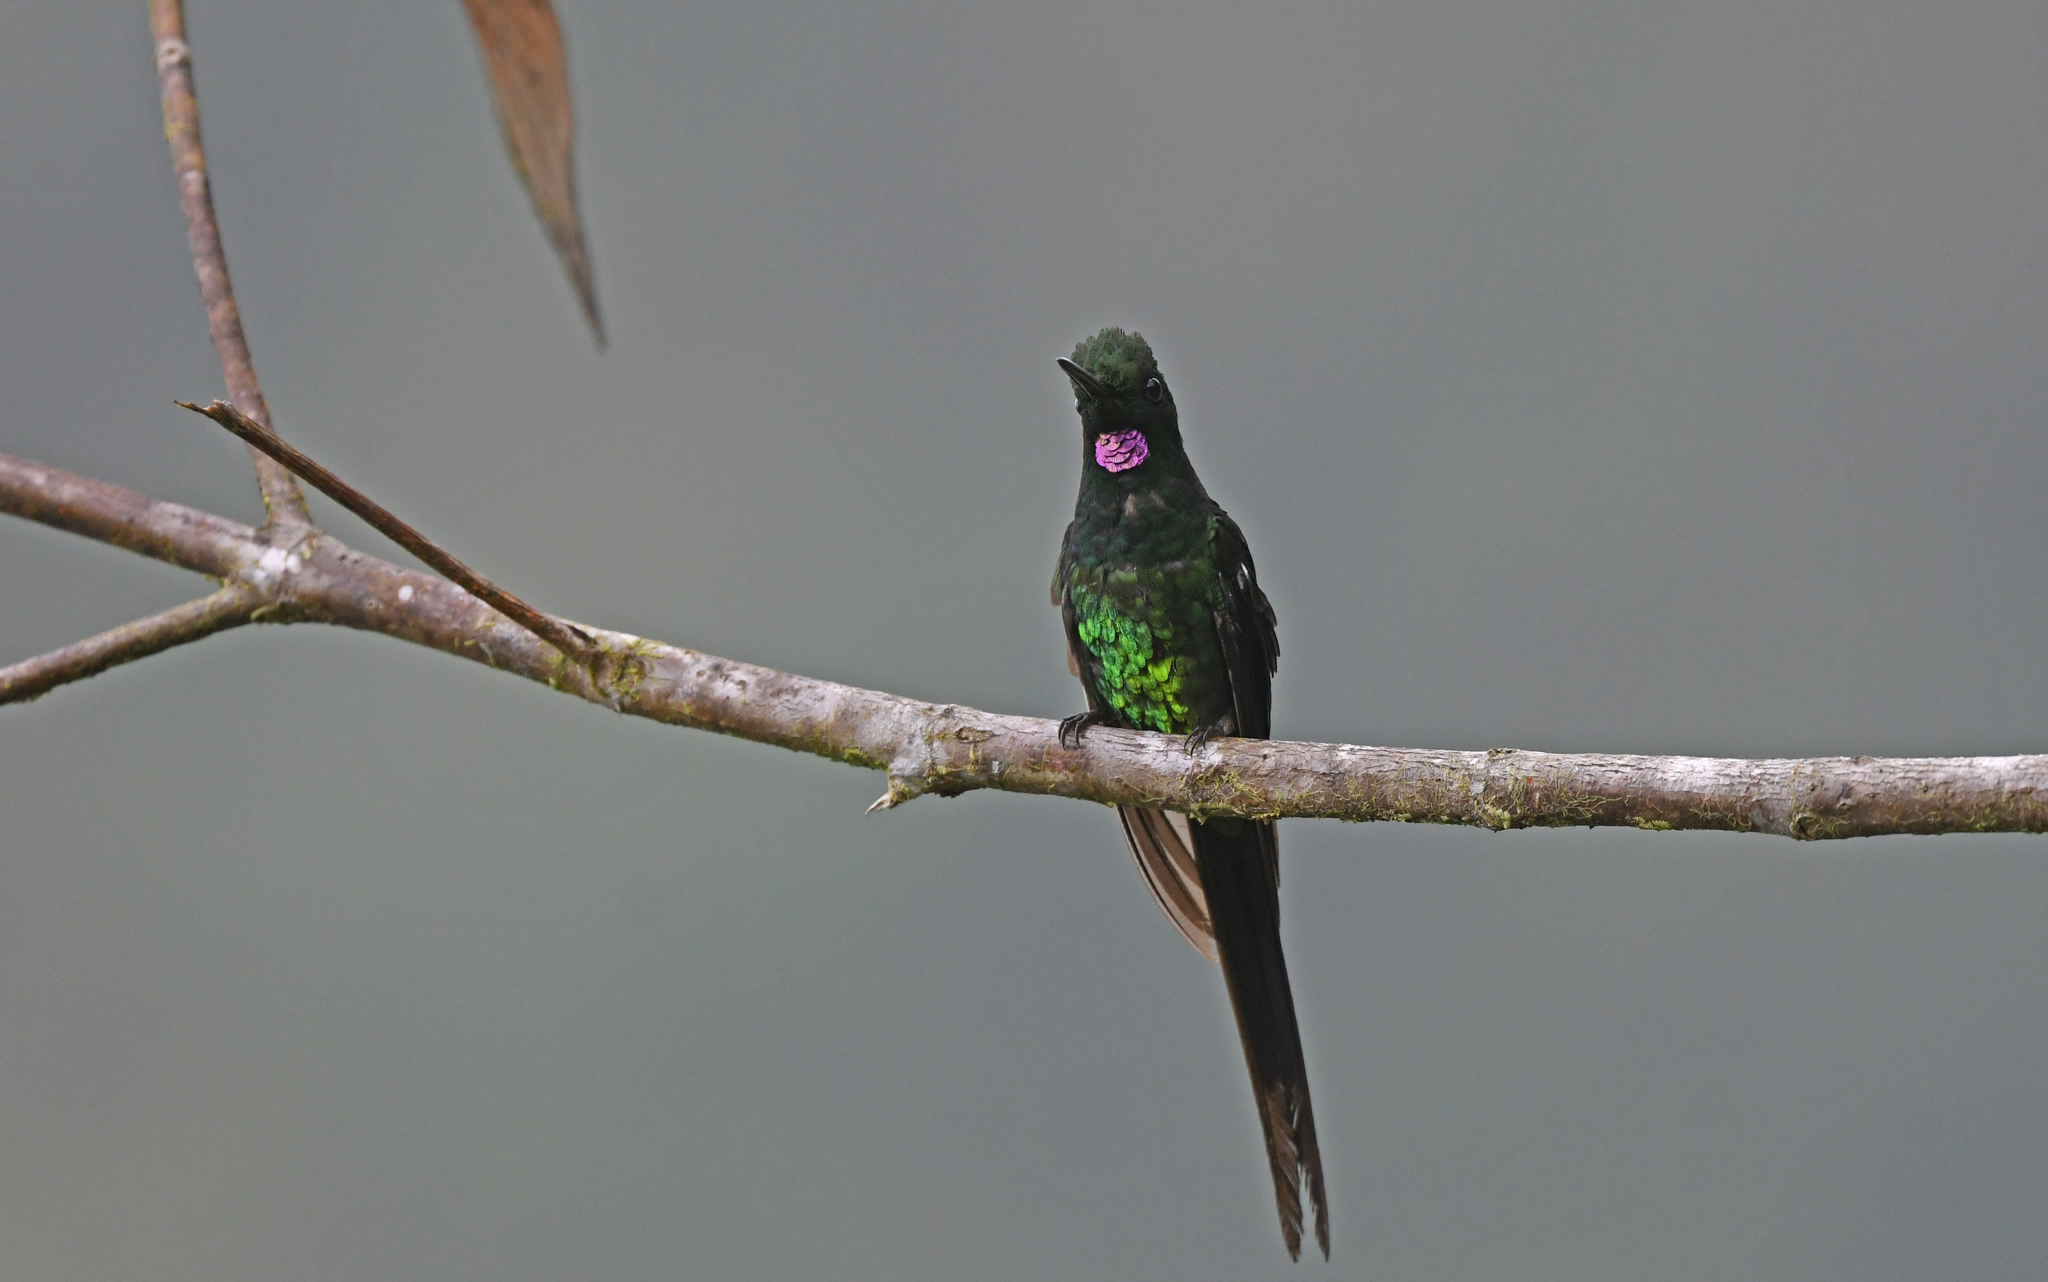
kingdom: Animalia
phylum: Chordata
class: Aves
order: Apodiformes
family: Trochilidae
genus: Heliodoxa
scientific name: Heliodoxa imperatrix
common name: Empress brilliant
